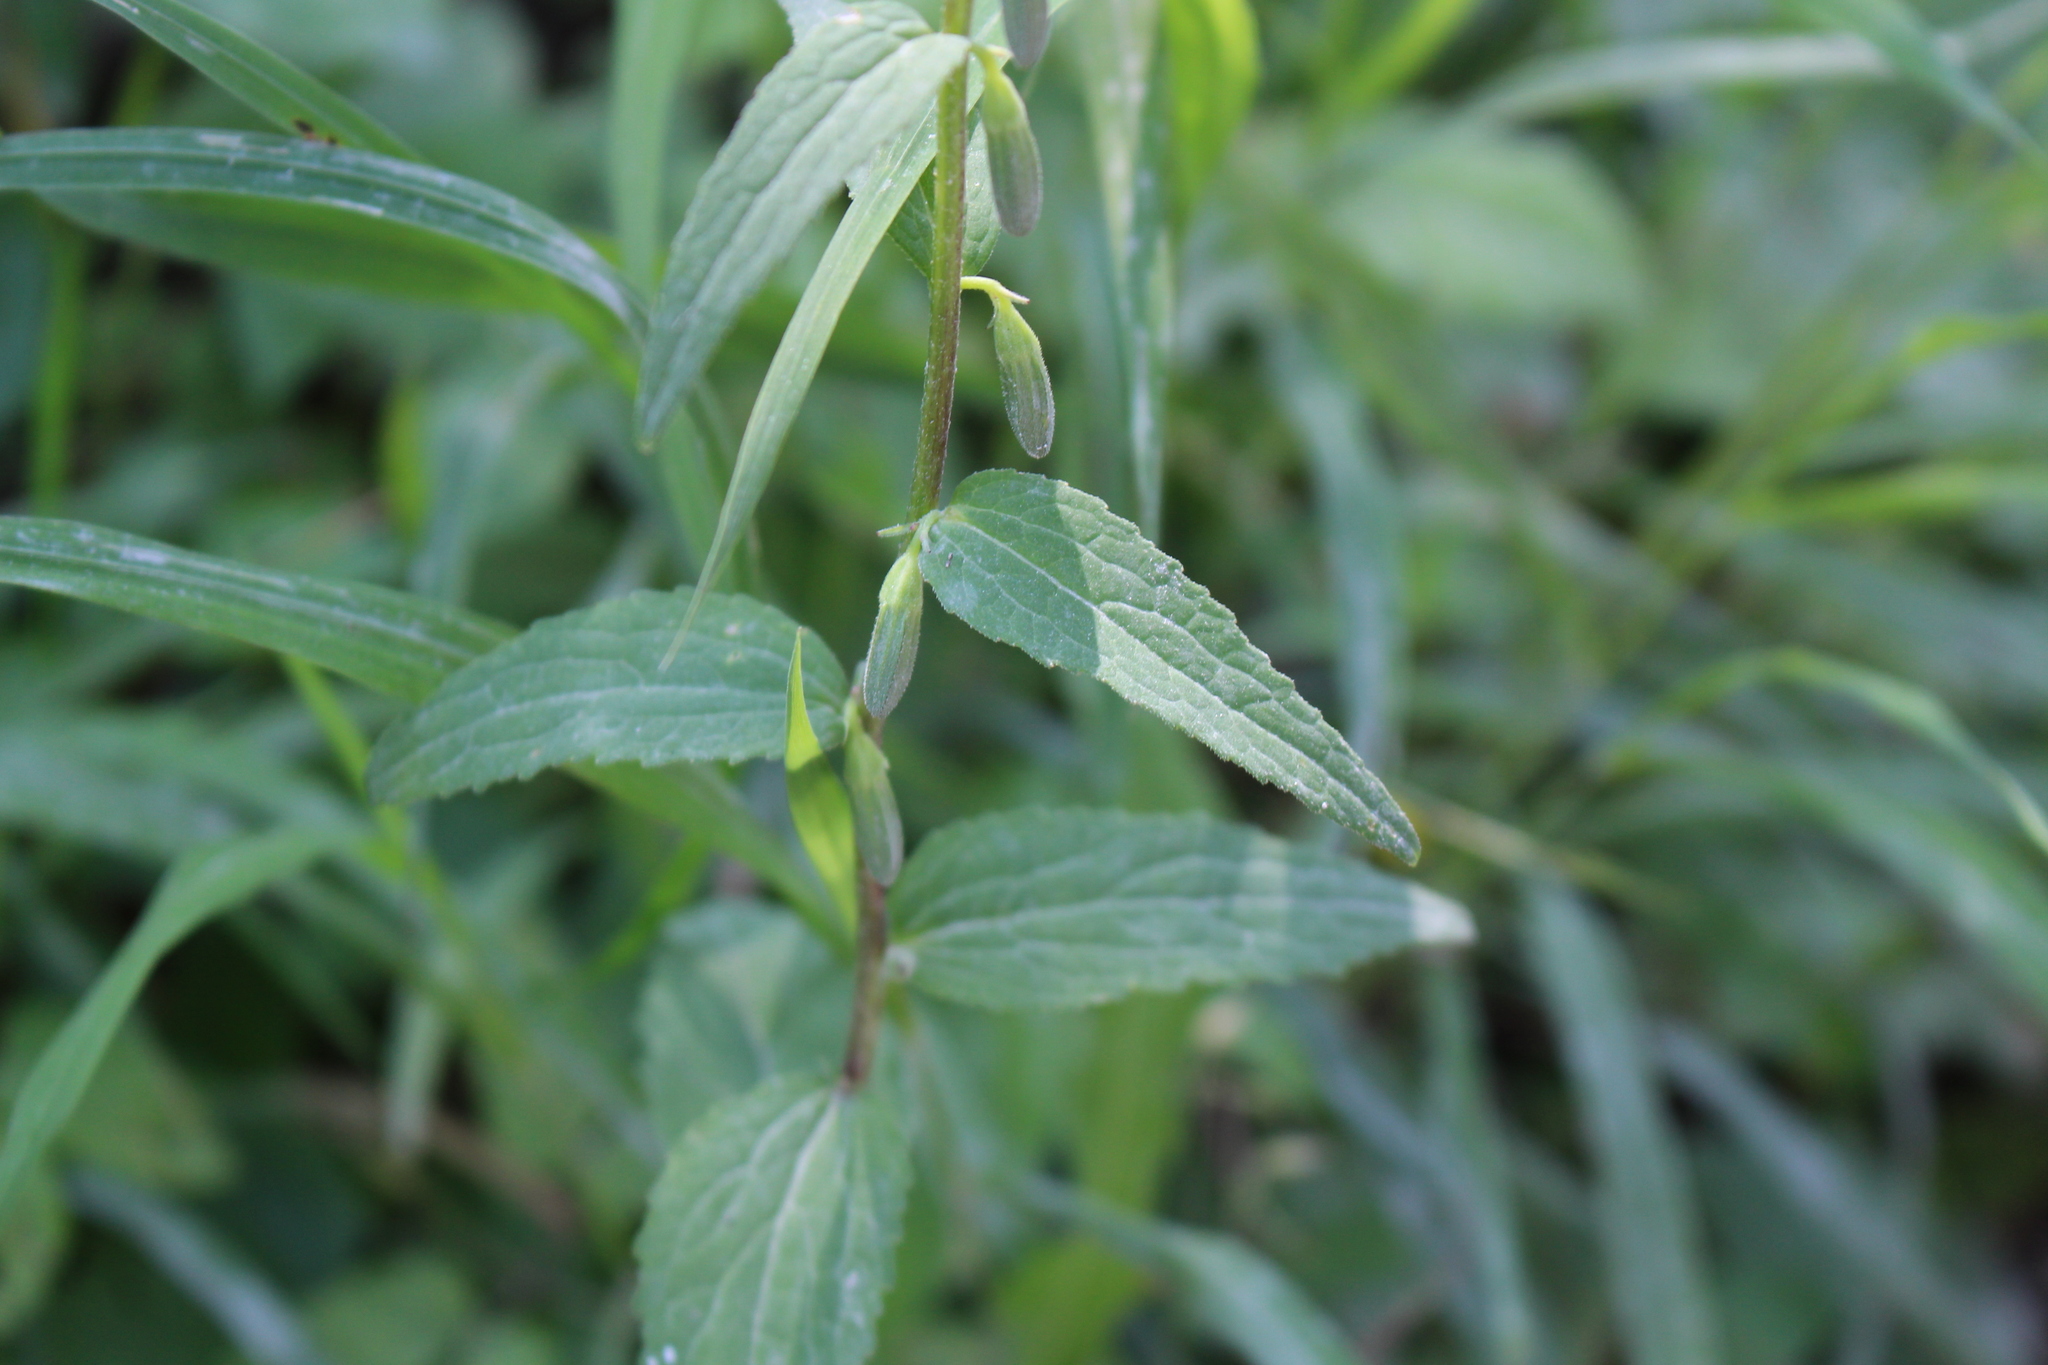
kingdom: Plantae
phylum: Tracheophyta
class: Magnoliopsida
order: Asterales
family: Campanulaceae
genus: Campanula
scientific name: Campanula rapunculoides
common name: Creeping bellflower
